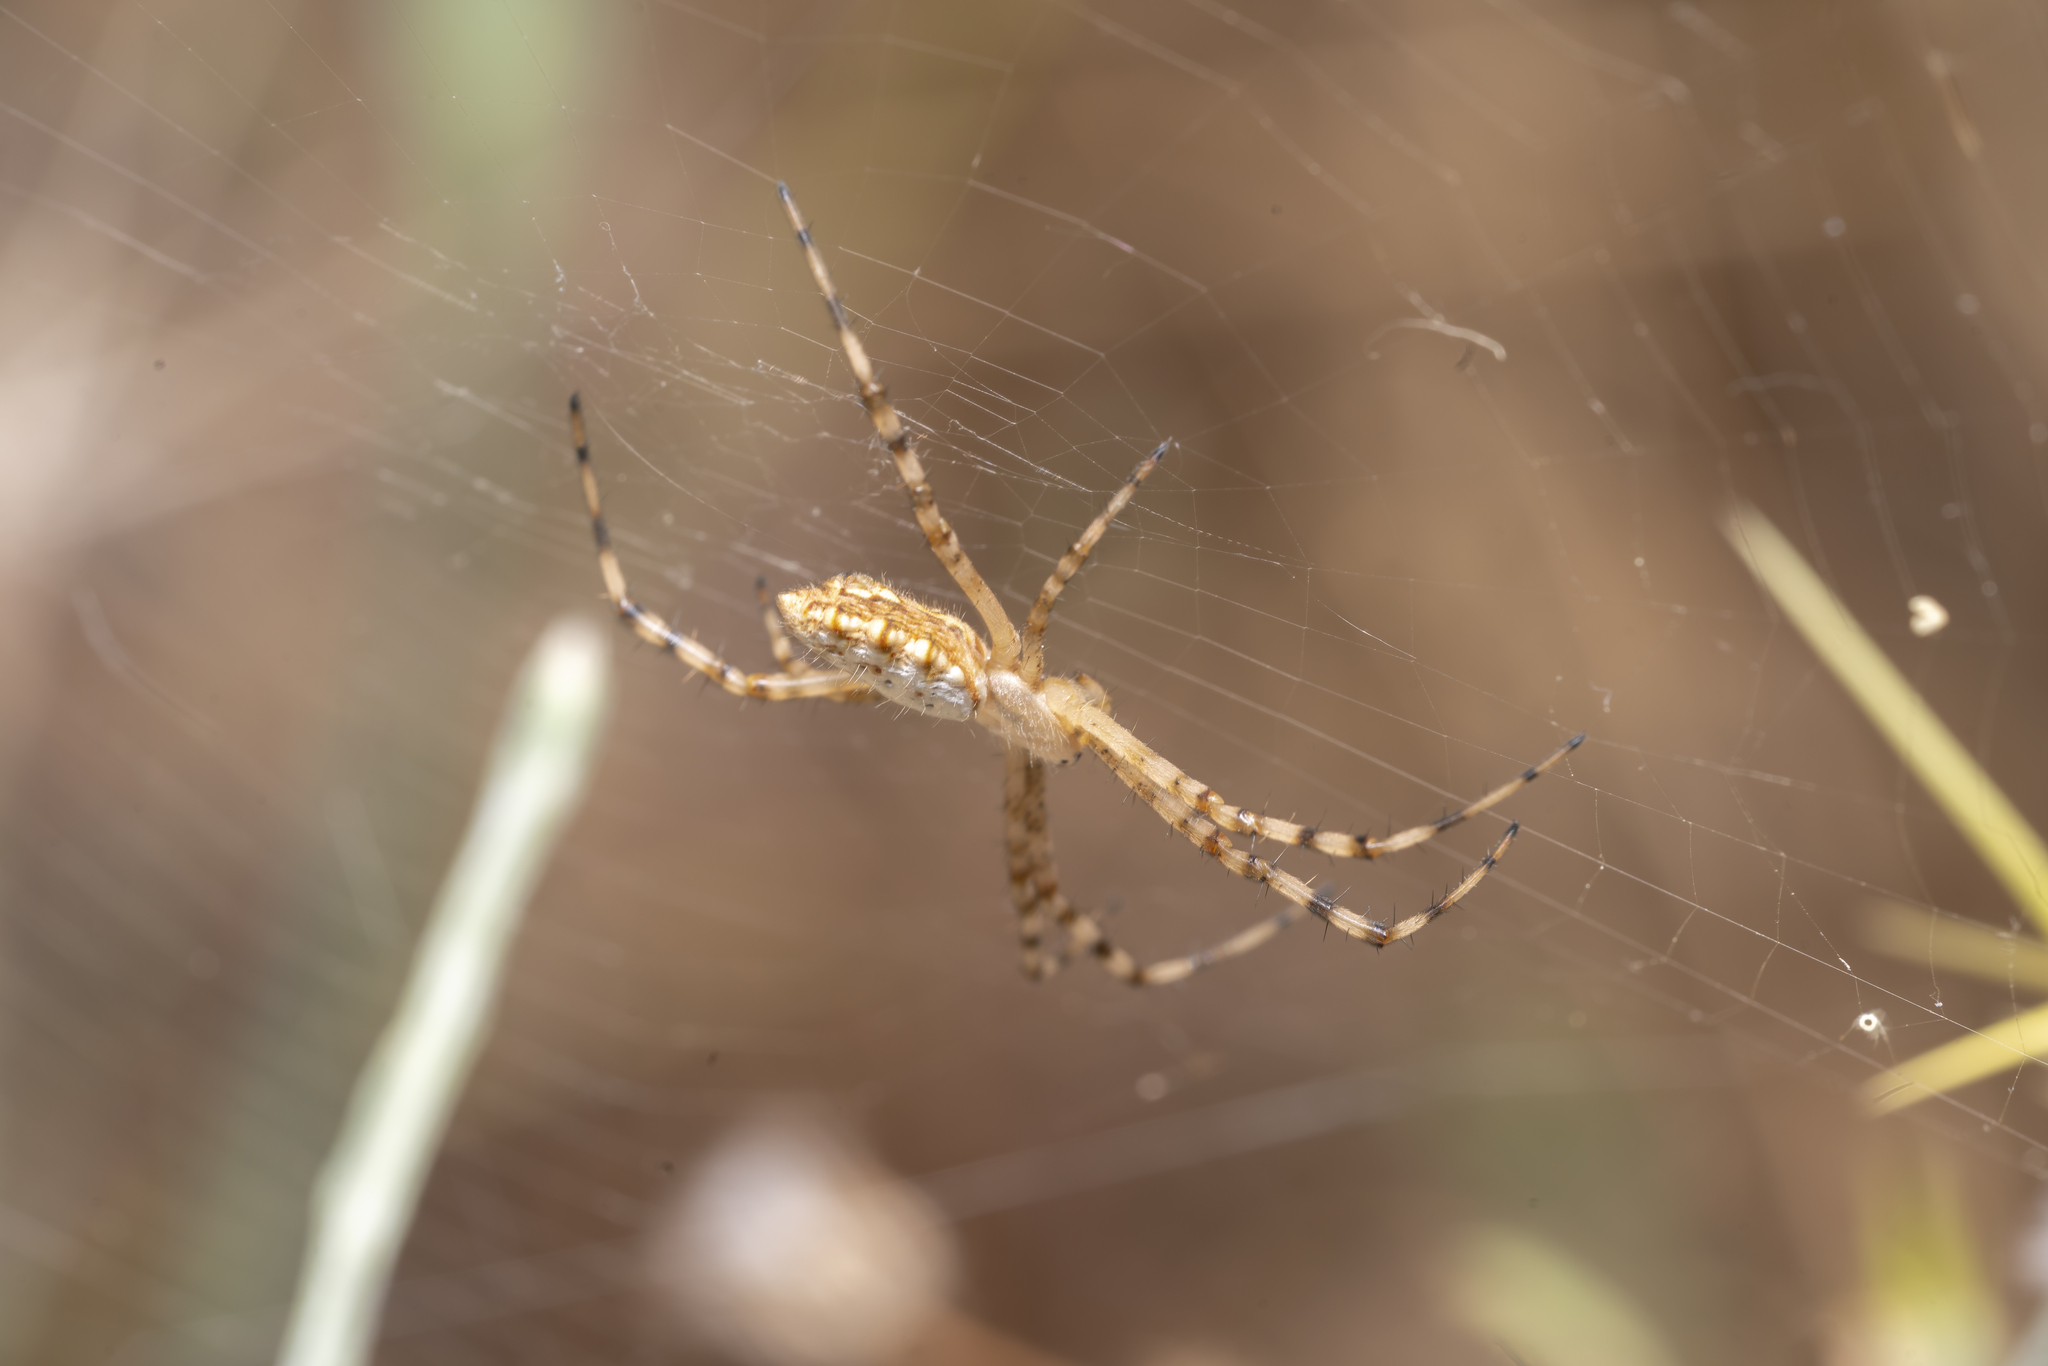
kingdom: Animalia
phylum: Arthropoda
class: Arachnida
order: Araneae
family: Araneidae
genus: Argiope
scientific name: Argiope lobata
